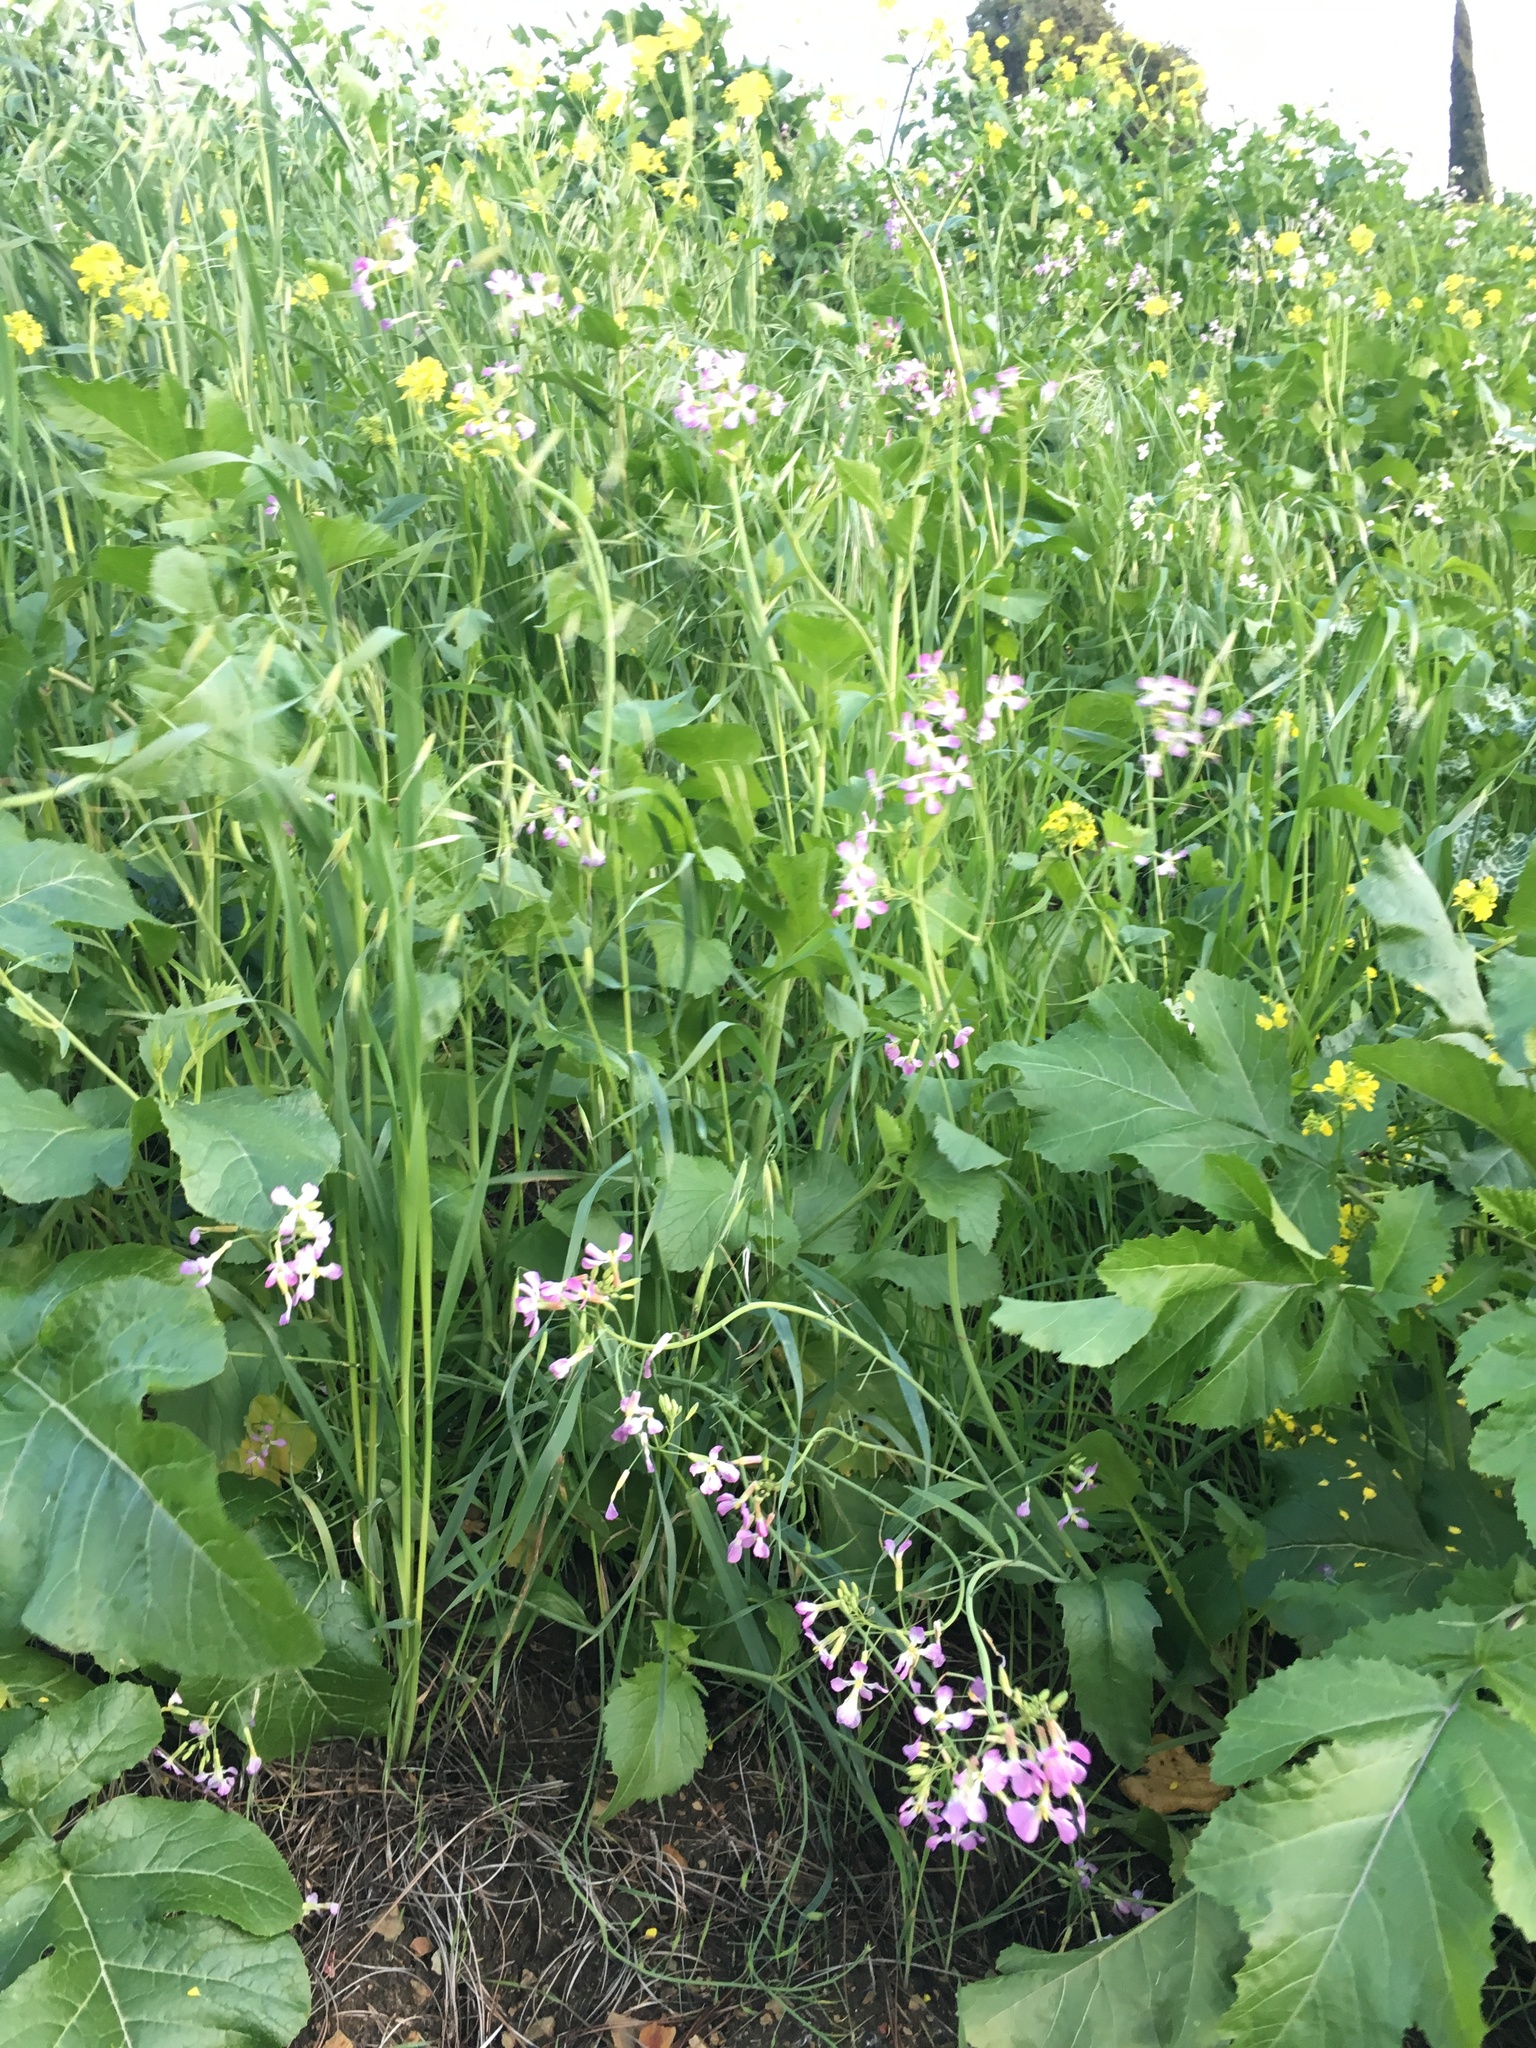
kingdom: Plantae
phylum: Tracheophyta
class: Magnoliopsida
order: Brassicales
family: Brassicaceae
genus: Raphanus
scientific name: Raphanus sativus
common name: Cultivated radish
